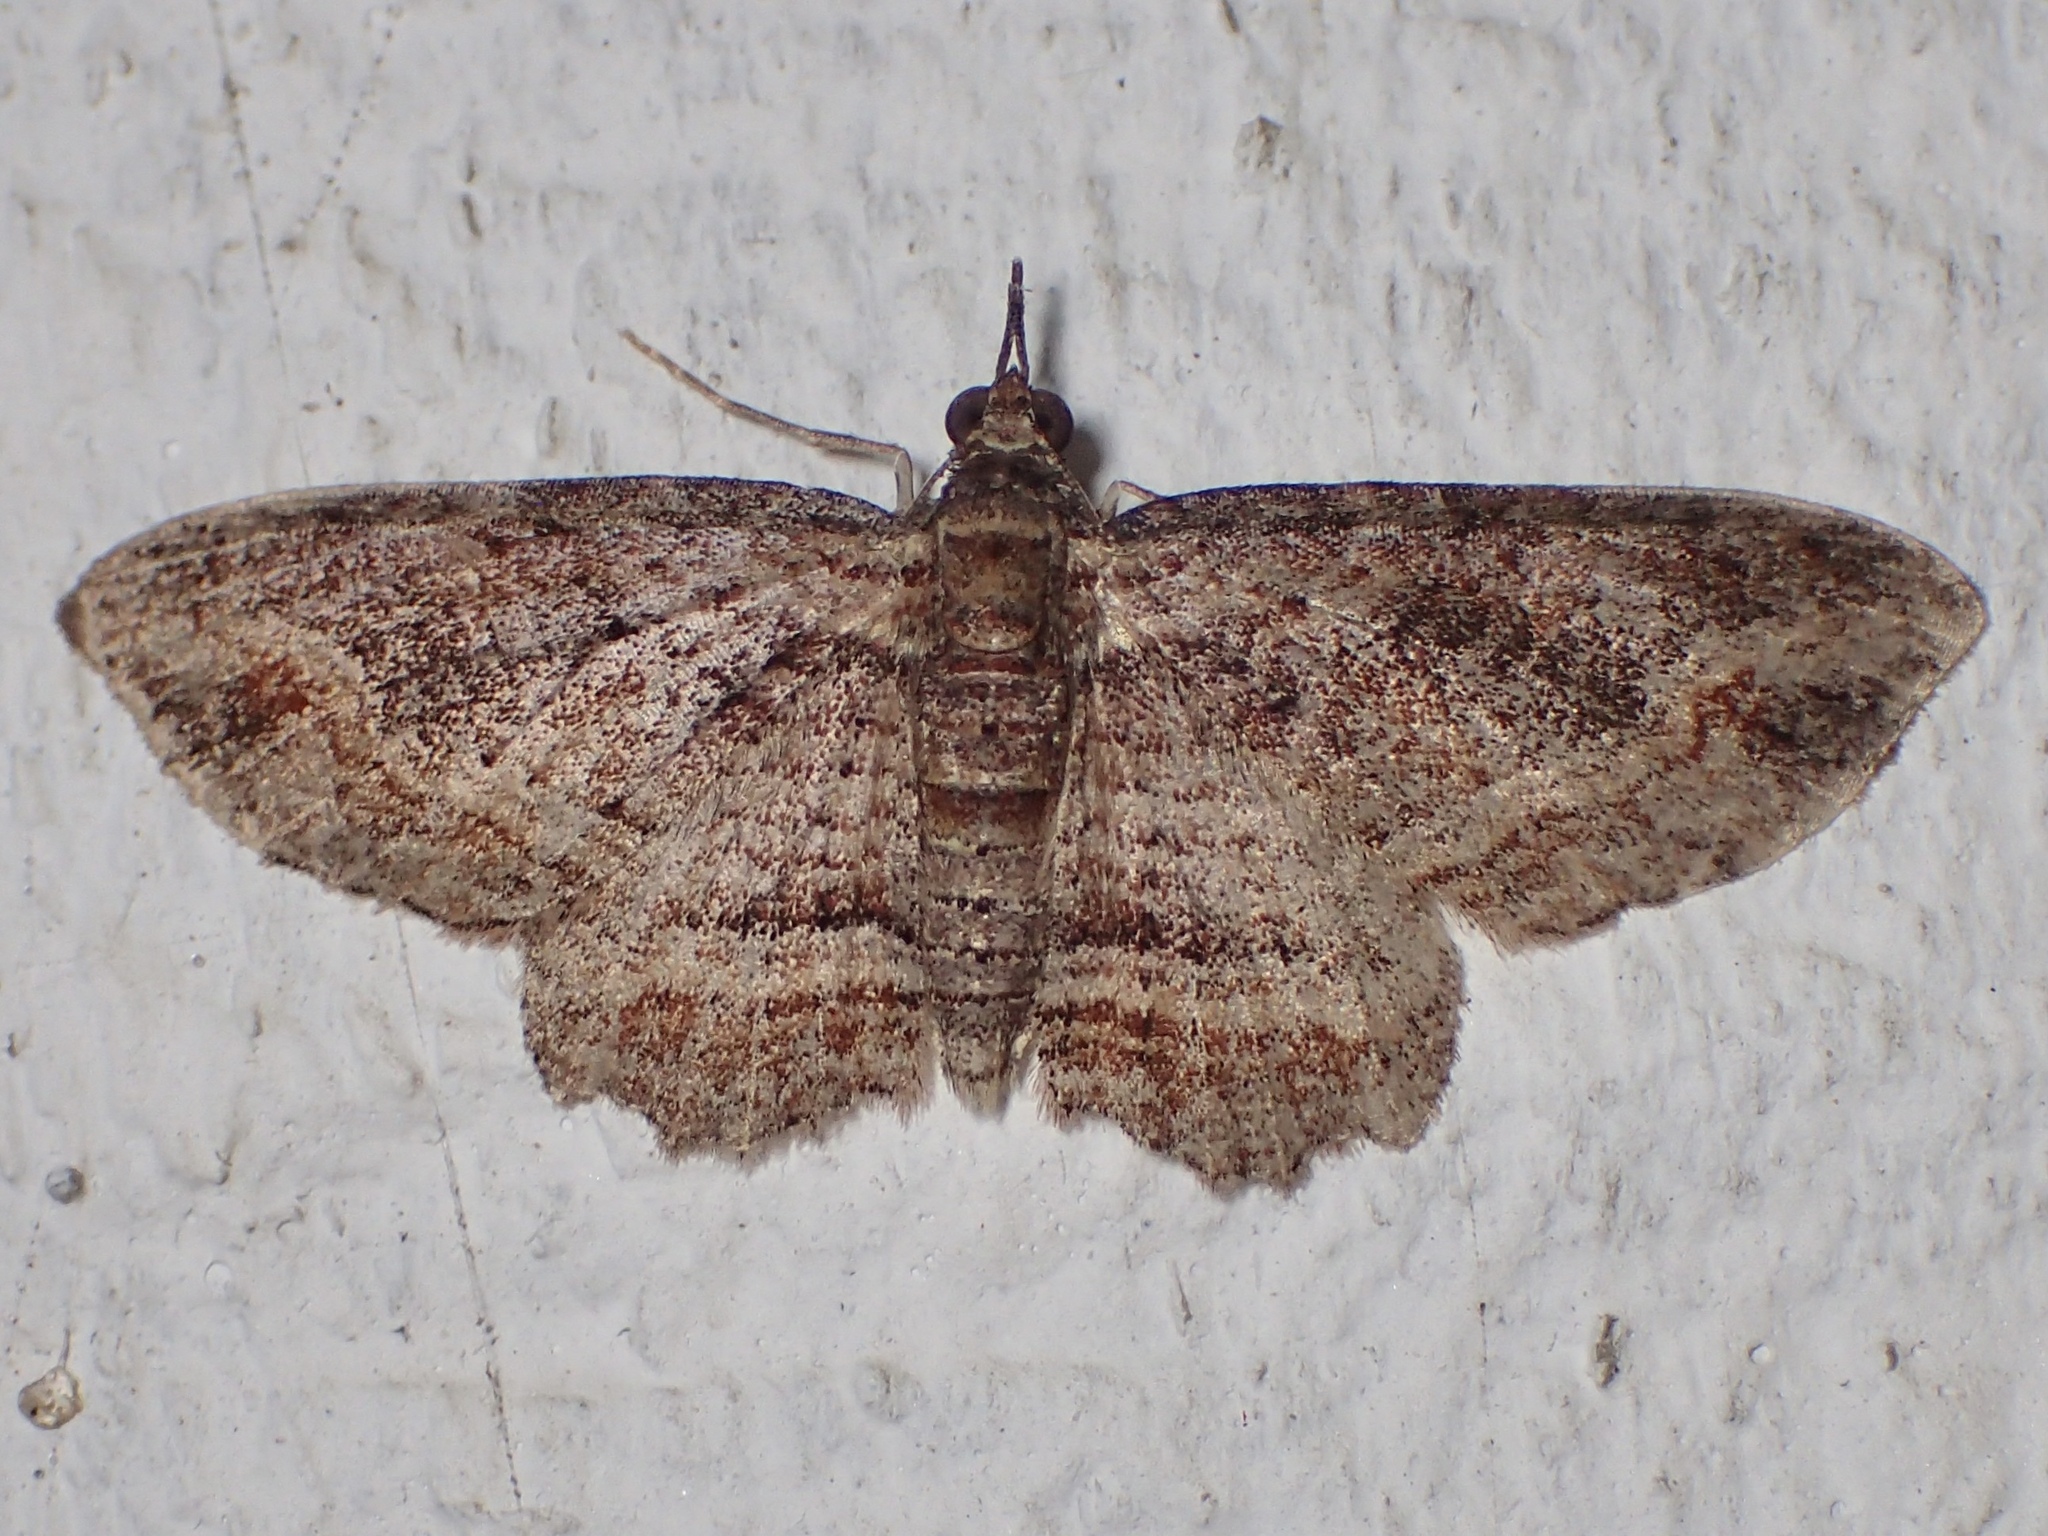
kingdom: Animalia
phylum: Arthropoda
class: Insecta
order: Lepidoptera
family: Geometridae
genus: Chloroclystis
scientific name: Chloroclystis filata
